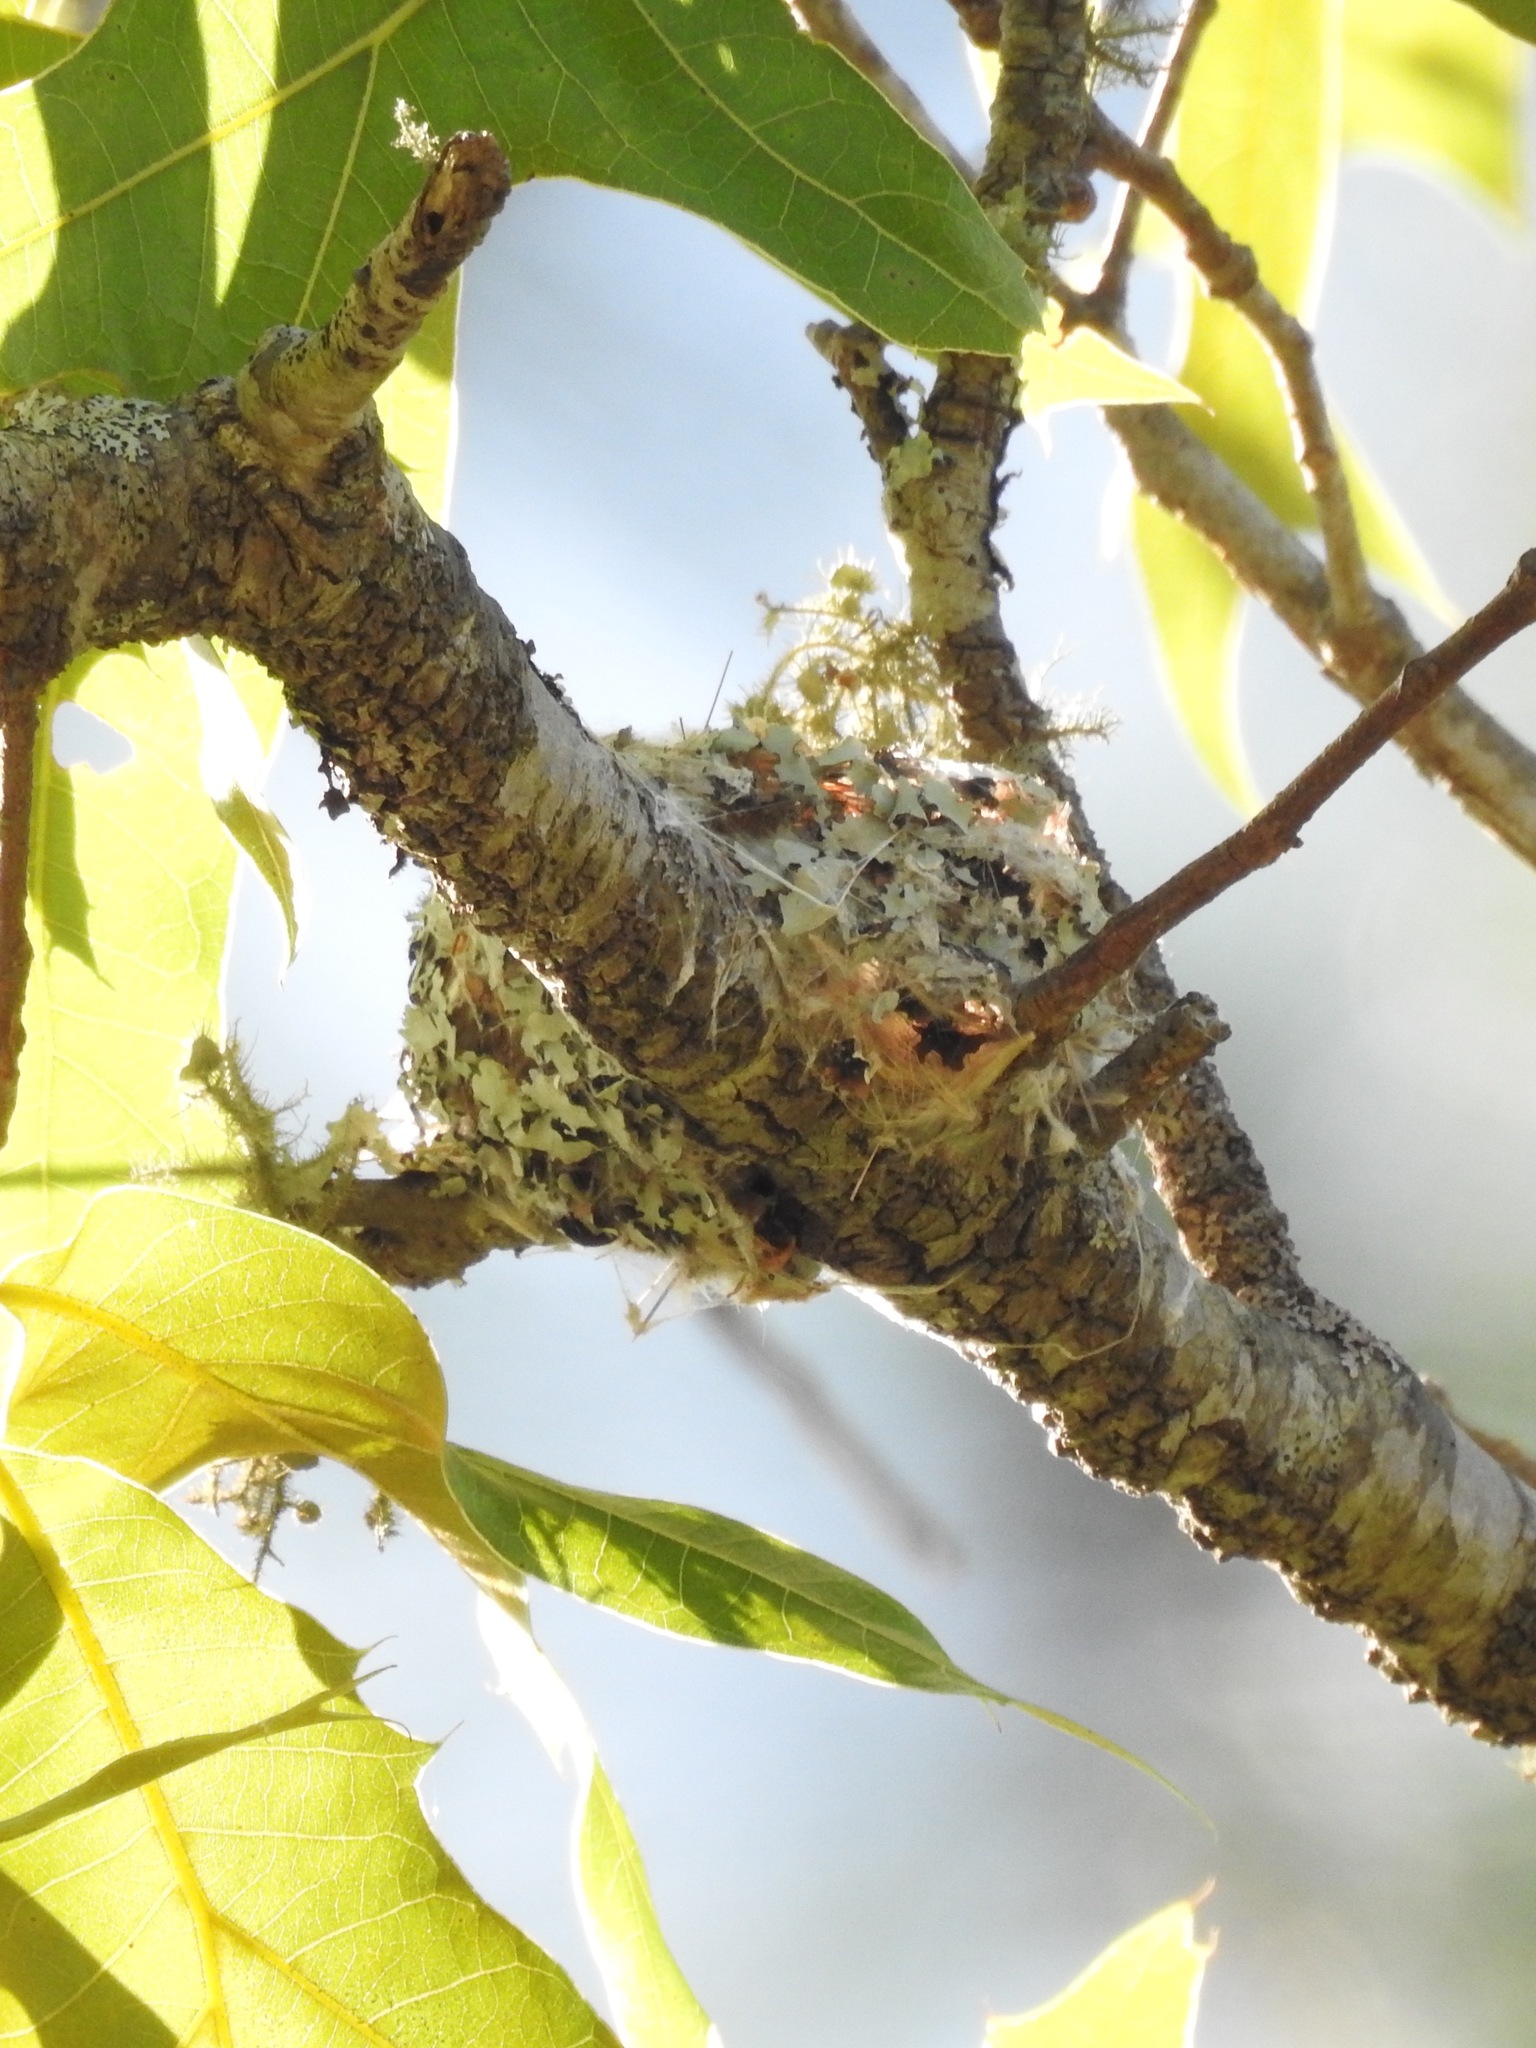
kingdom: Animalia
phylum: Chordata
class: Aves
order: Passeriformes
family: Polioptilidae
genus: Polioptila
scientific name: Polioptila caerulea
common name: Blue-gray gnatcatcher
